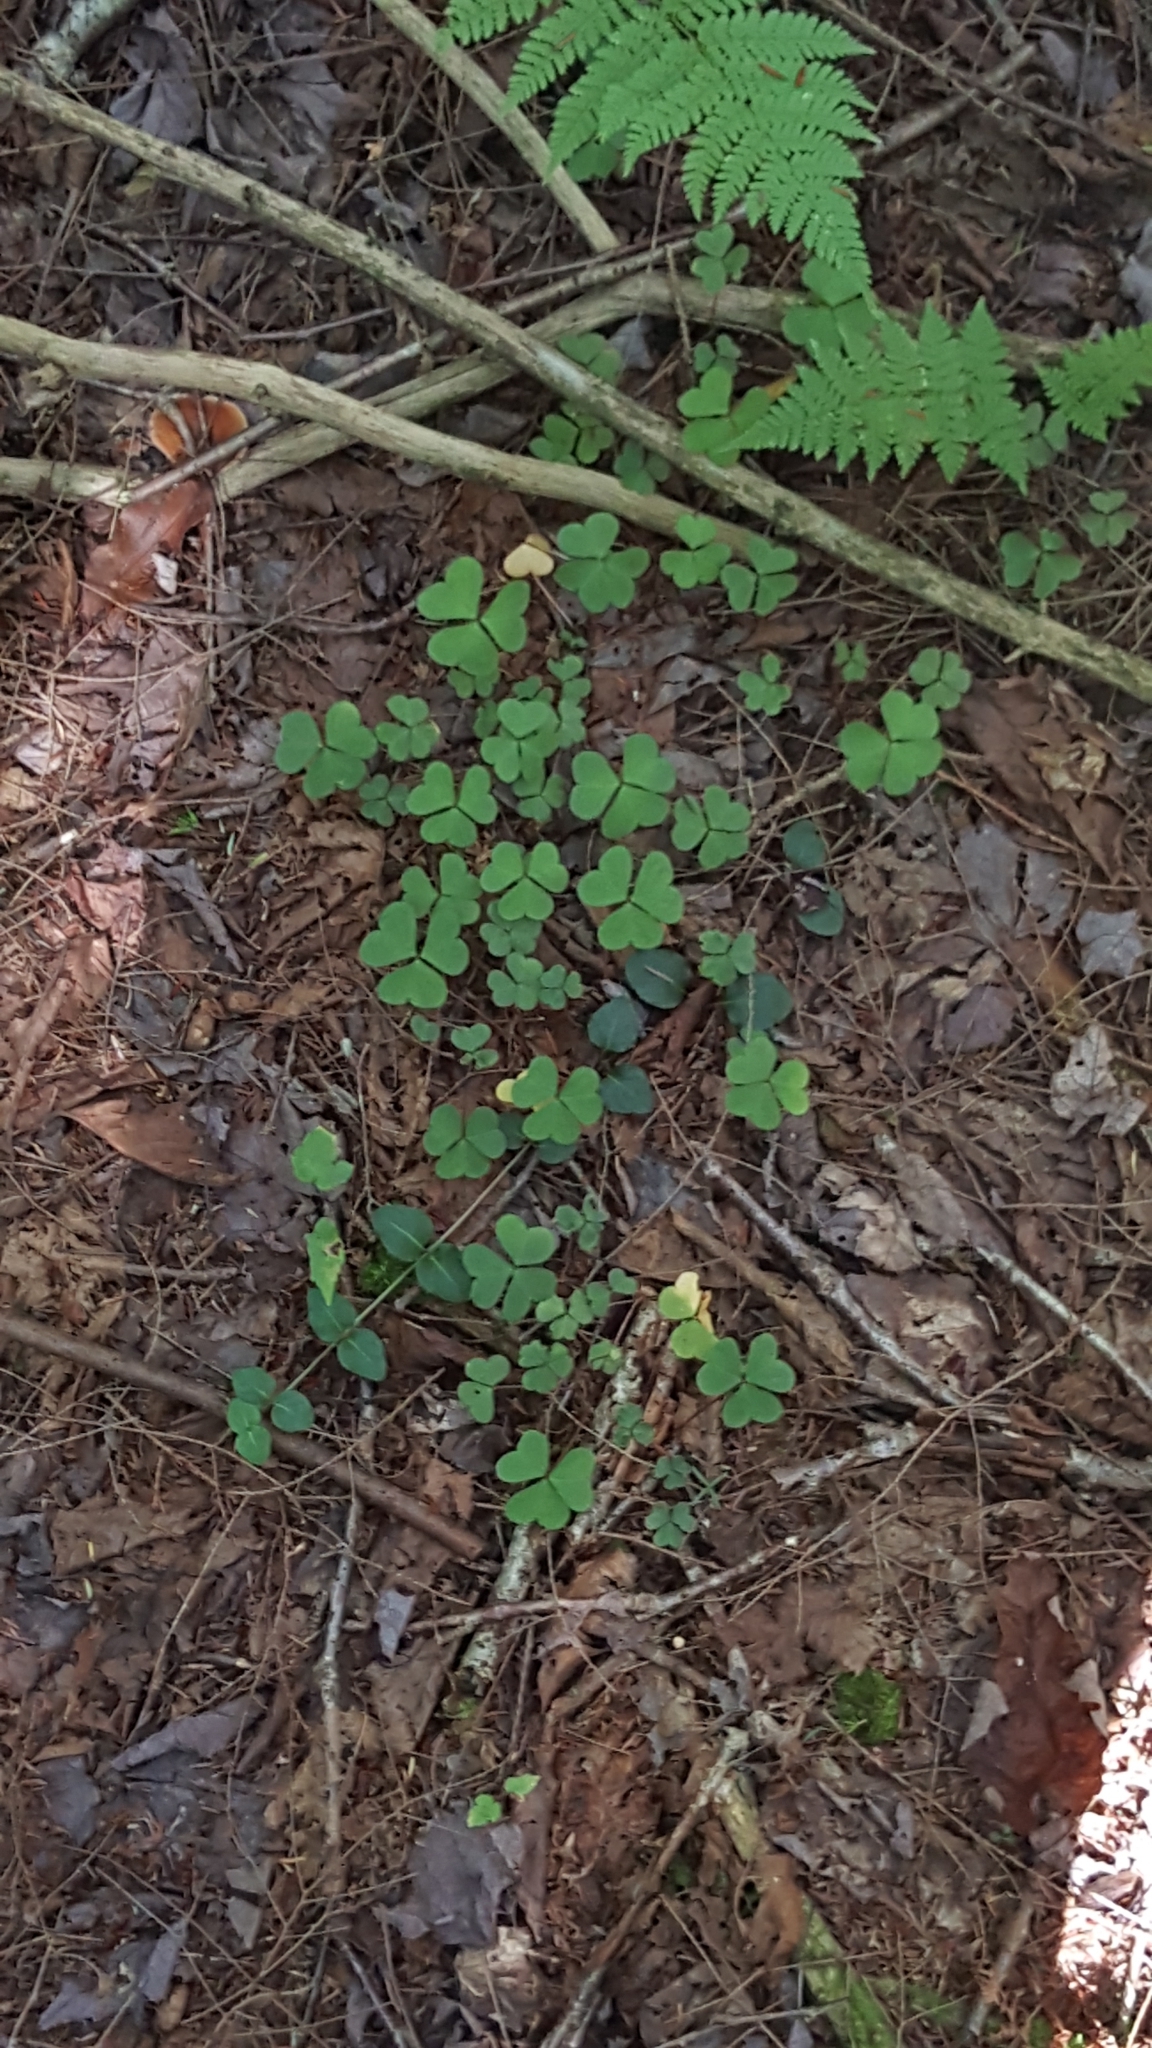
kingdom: Plantae
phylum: Tracheophyta
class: Magnoliopsida
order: Oxalidales
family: Oxalidaceae
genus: Oxalis
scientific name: Oxalis montana
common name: American wood-sorrel
